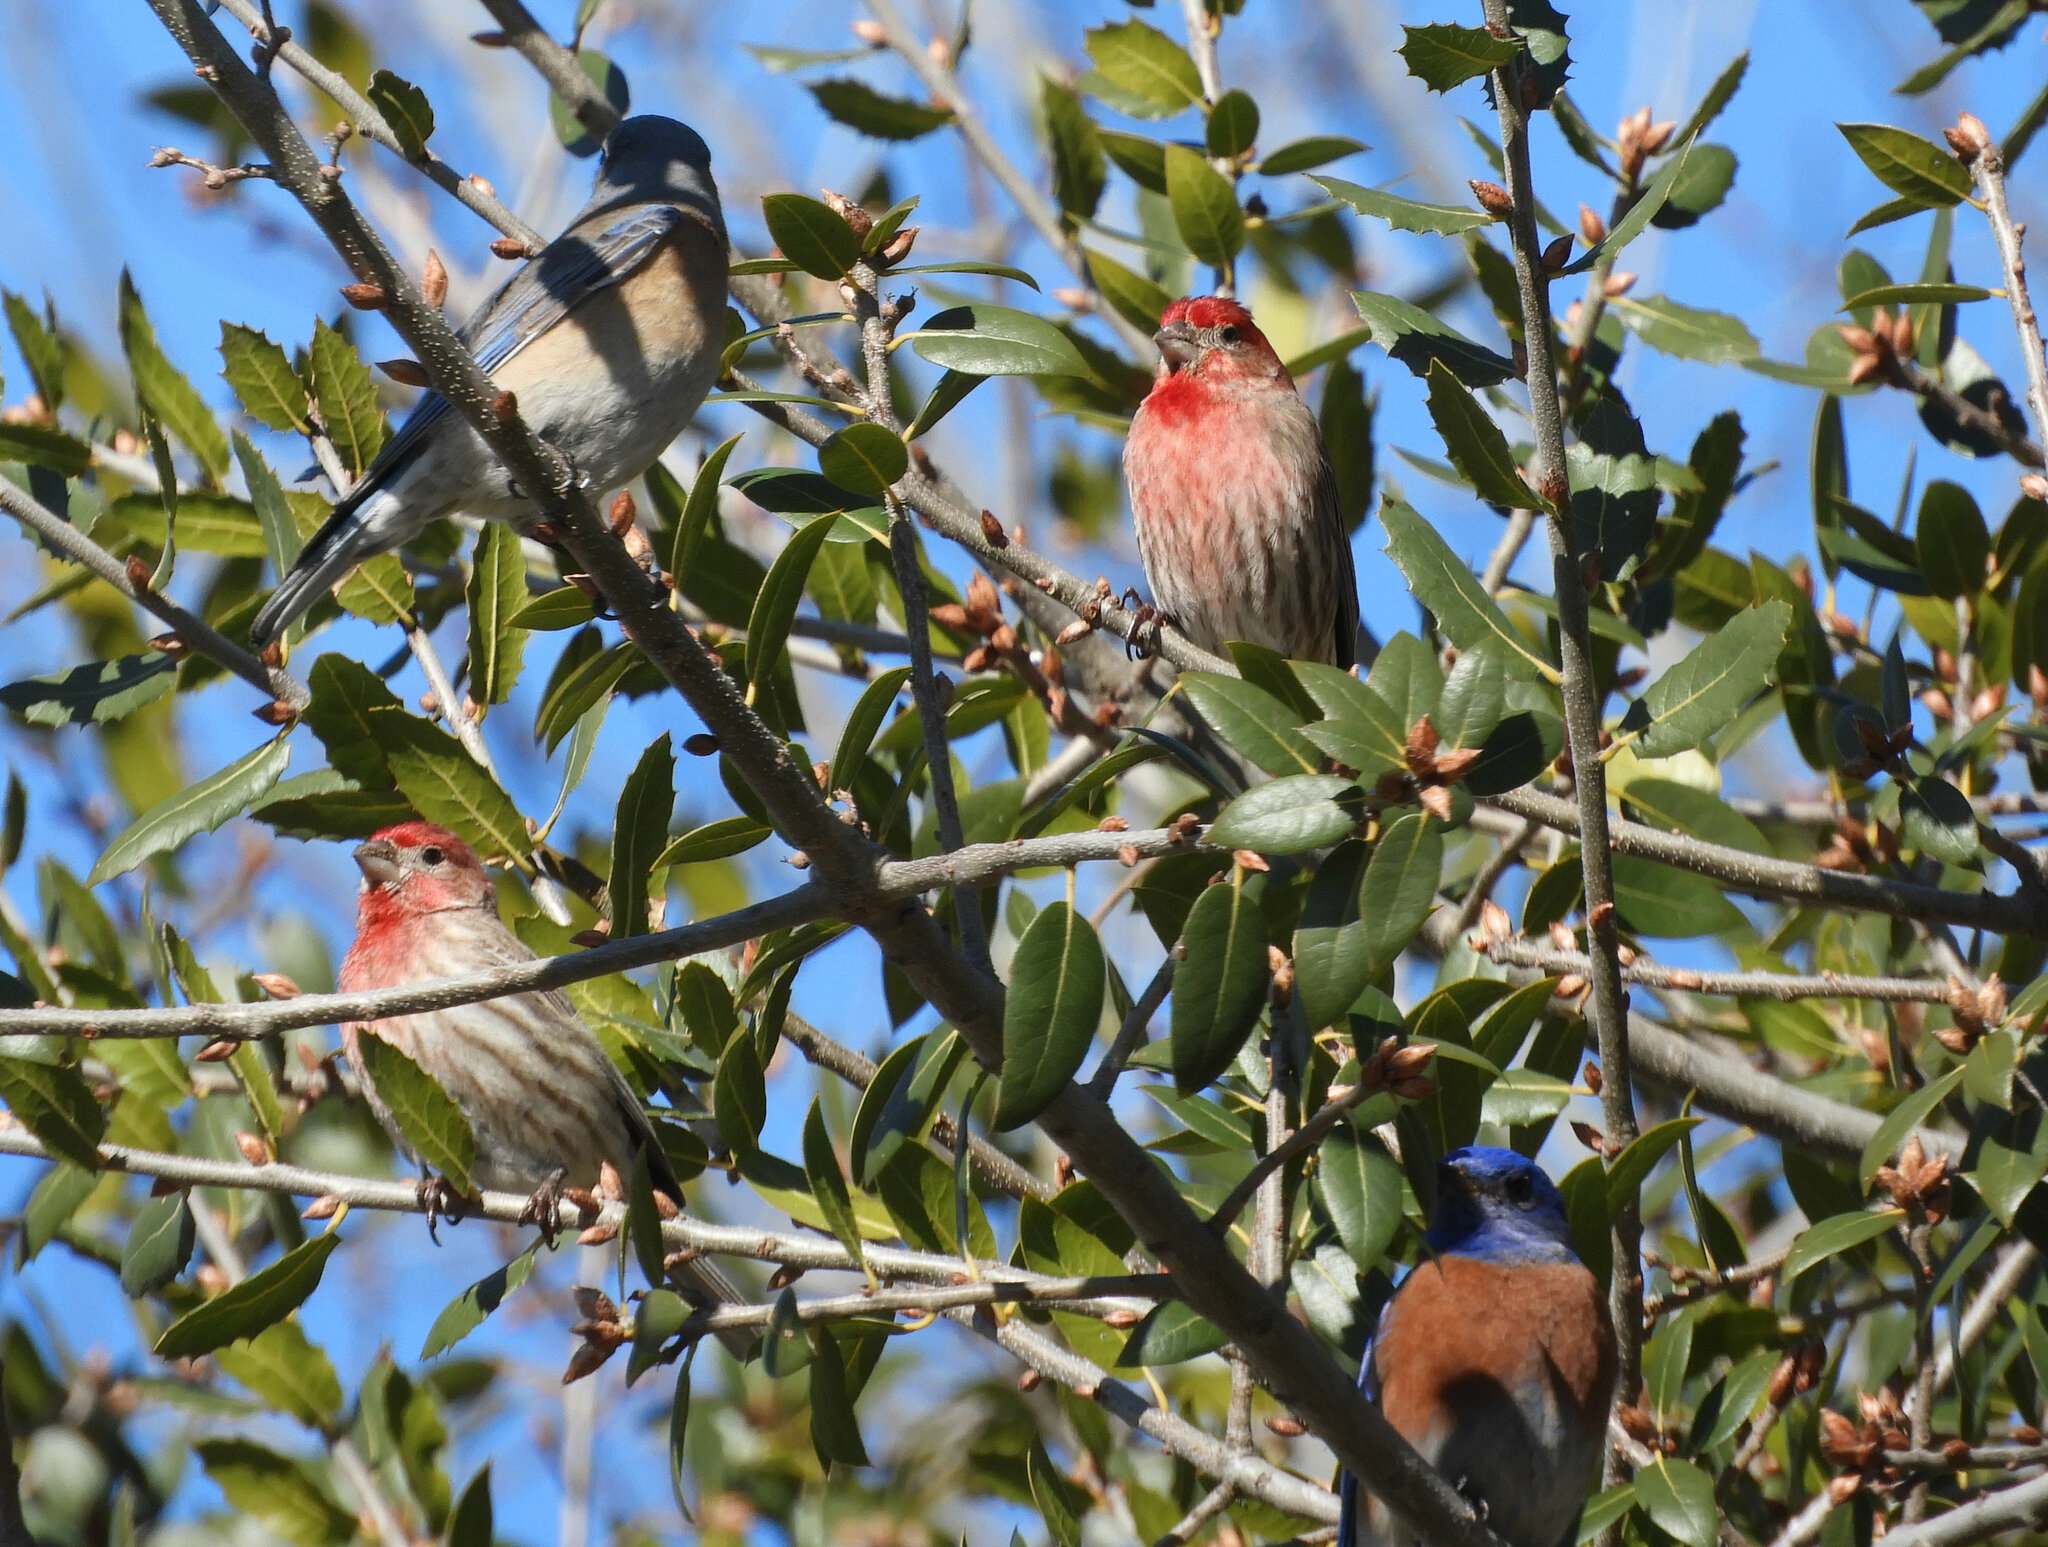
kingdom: Animalia
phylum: Chordata
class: Aves
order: Passeriformes
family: Fringillidae
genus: Haemorhous
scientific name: Haemorhous mexicanus
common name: House finch
